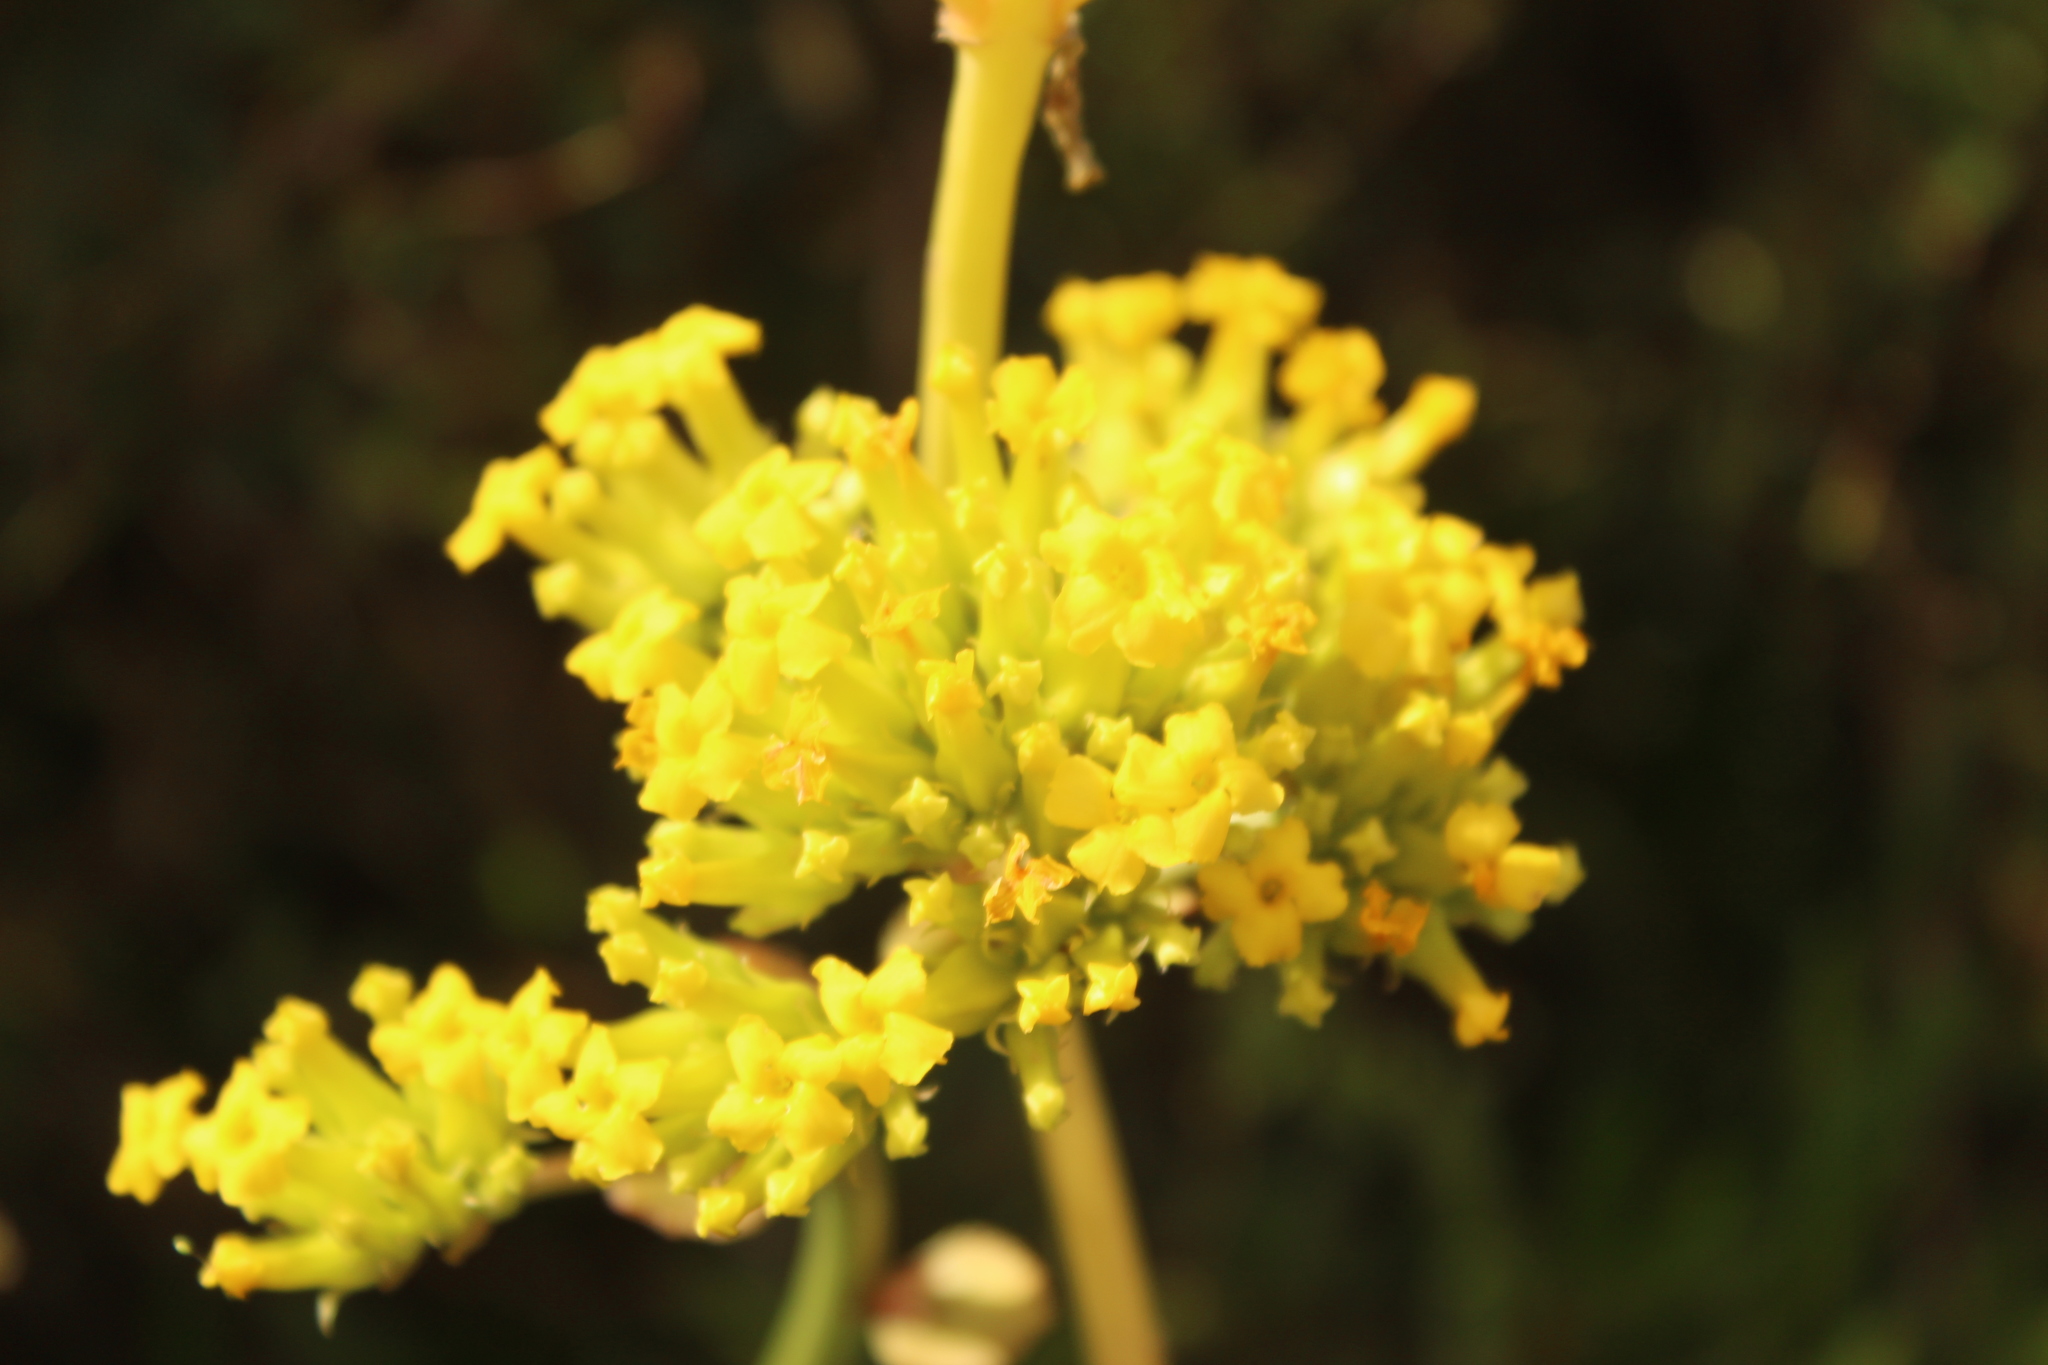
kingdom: Plantae
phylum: Tracheophyta
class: Magnoliopsida
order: Saxifragales
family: Crassulaceae
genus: Kalanchoe
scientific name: Kalanchoe densiflora
